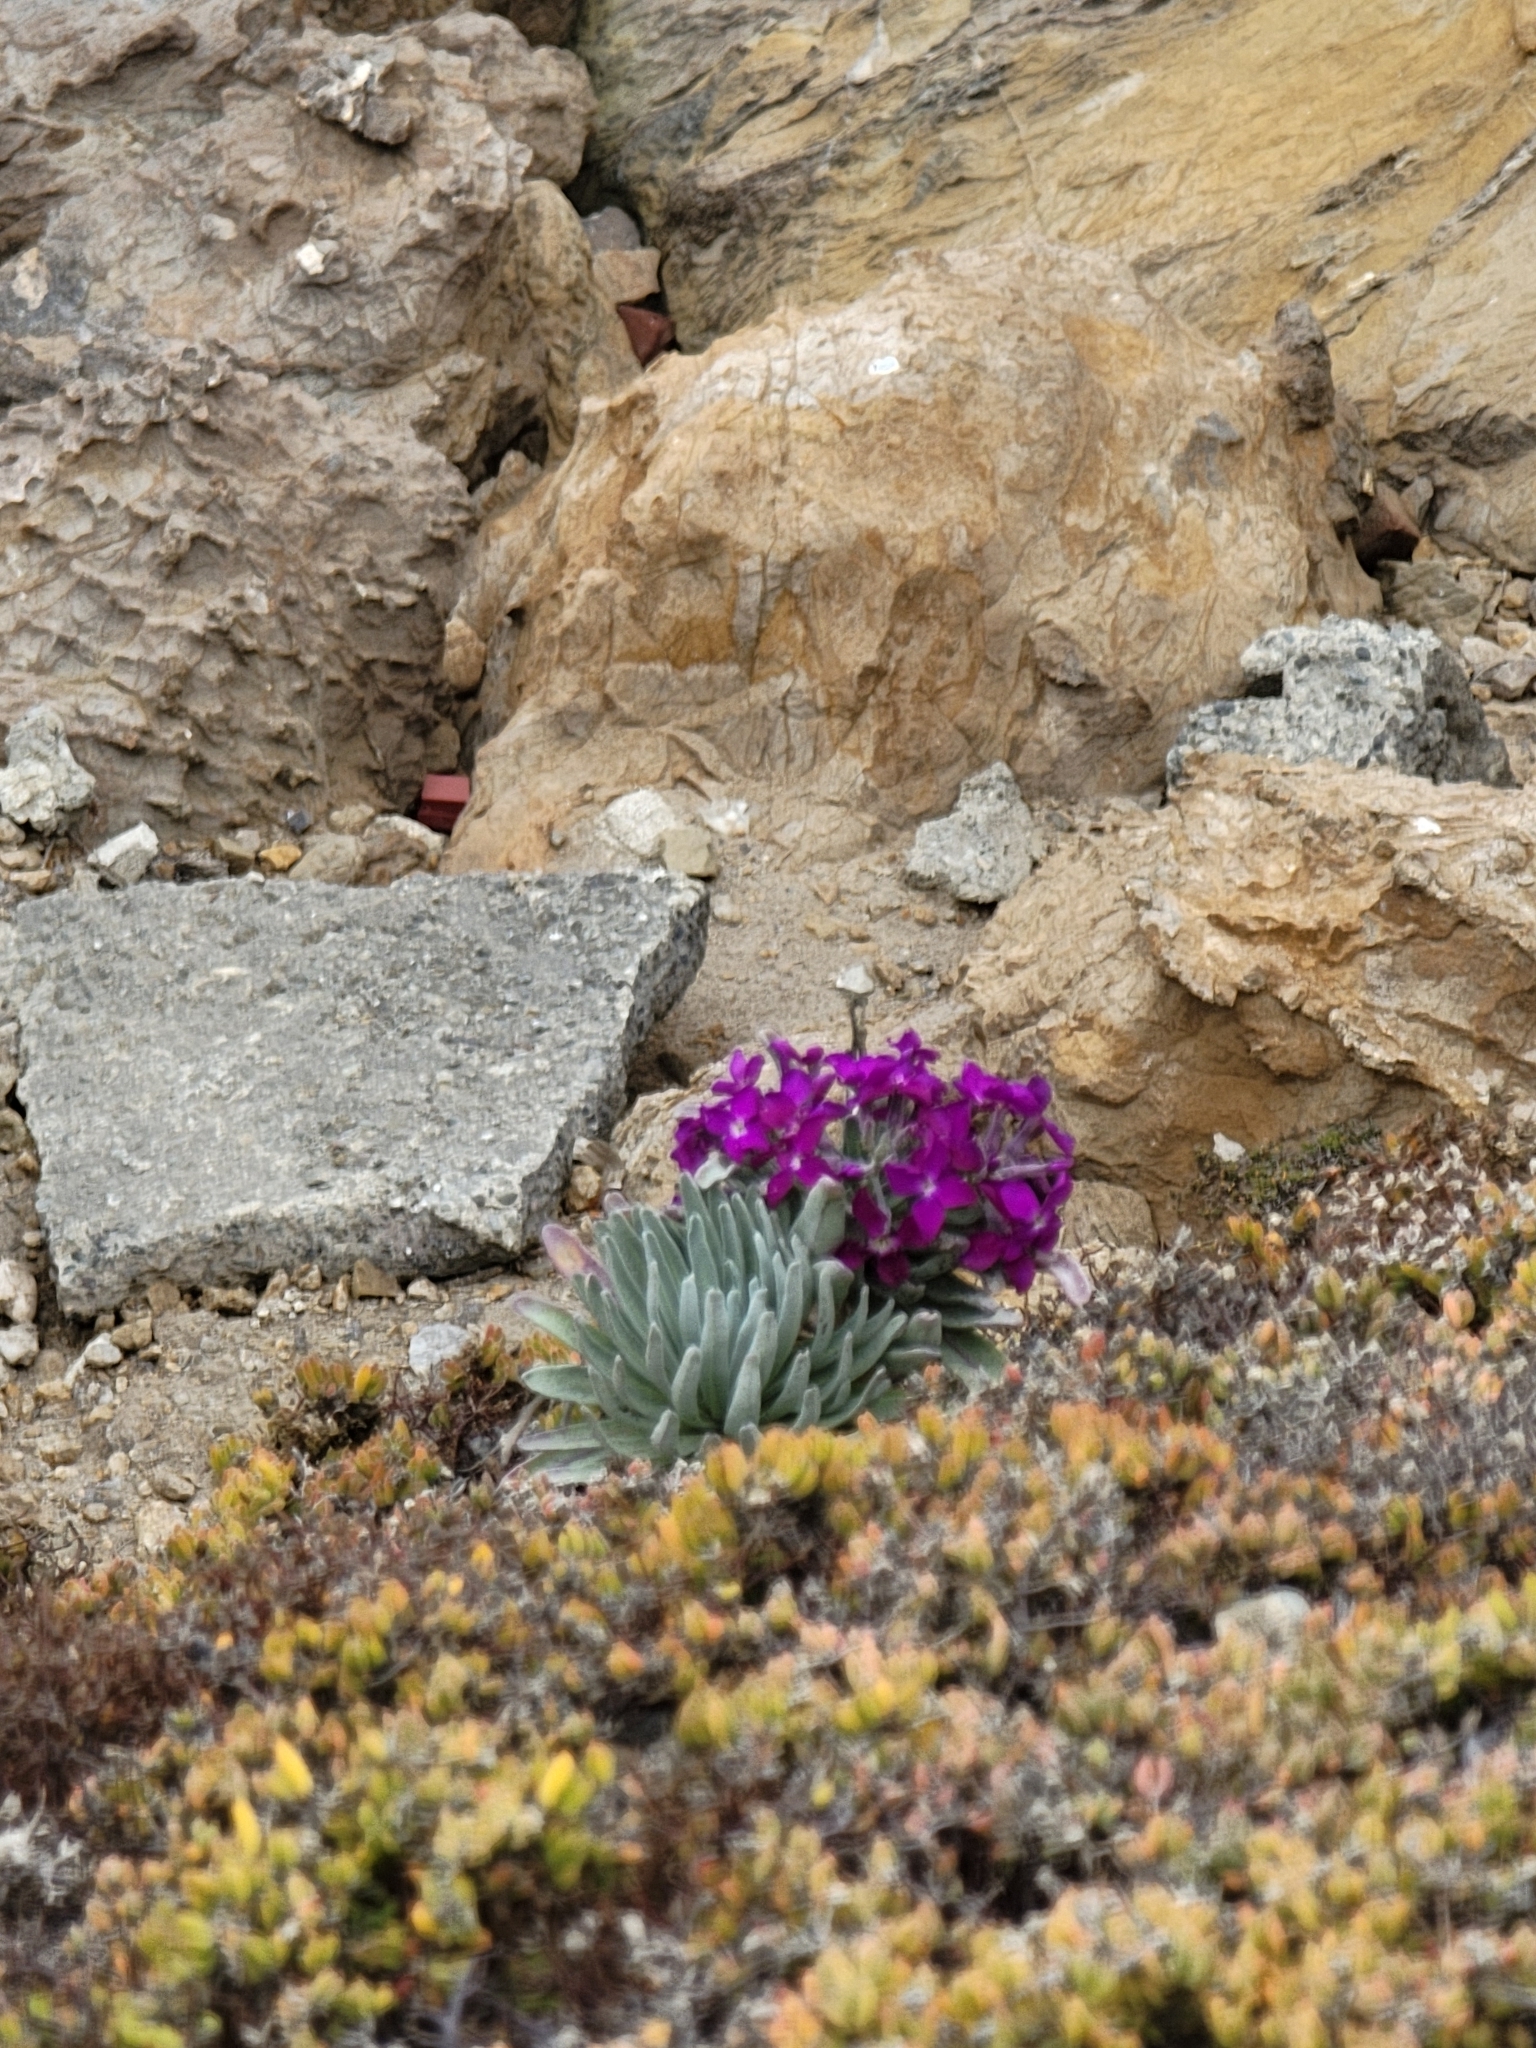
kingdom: Plantae
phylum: Tracheophyta
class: Magnoliopsida
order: Brassicales
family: Brassicaceae
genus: Matthiola
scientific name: Matthiola incana
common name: Hoary stock
